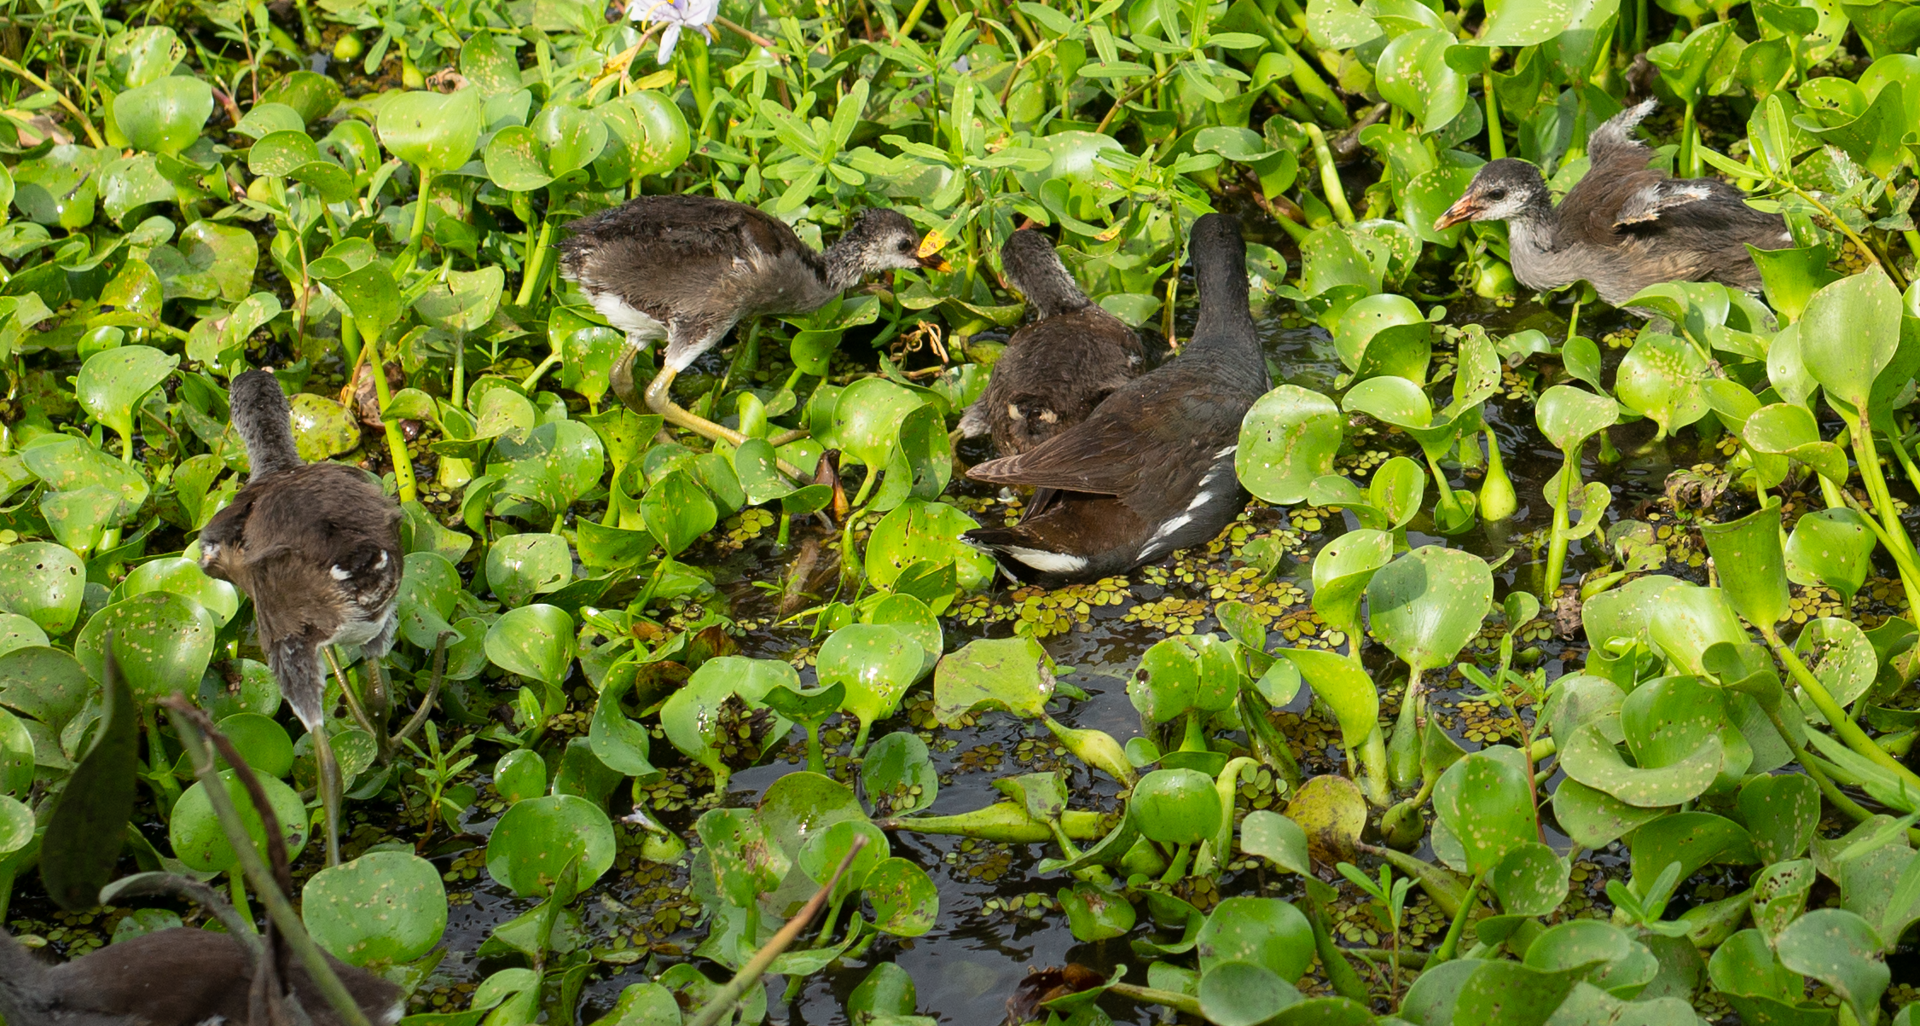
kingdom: Animalia
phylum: Chordata
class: Aves
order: Gruiformes
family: Rallidae
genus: Gallinula
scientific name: Gallinula chloropus
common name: Common moorhen
